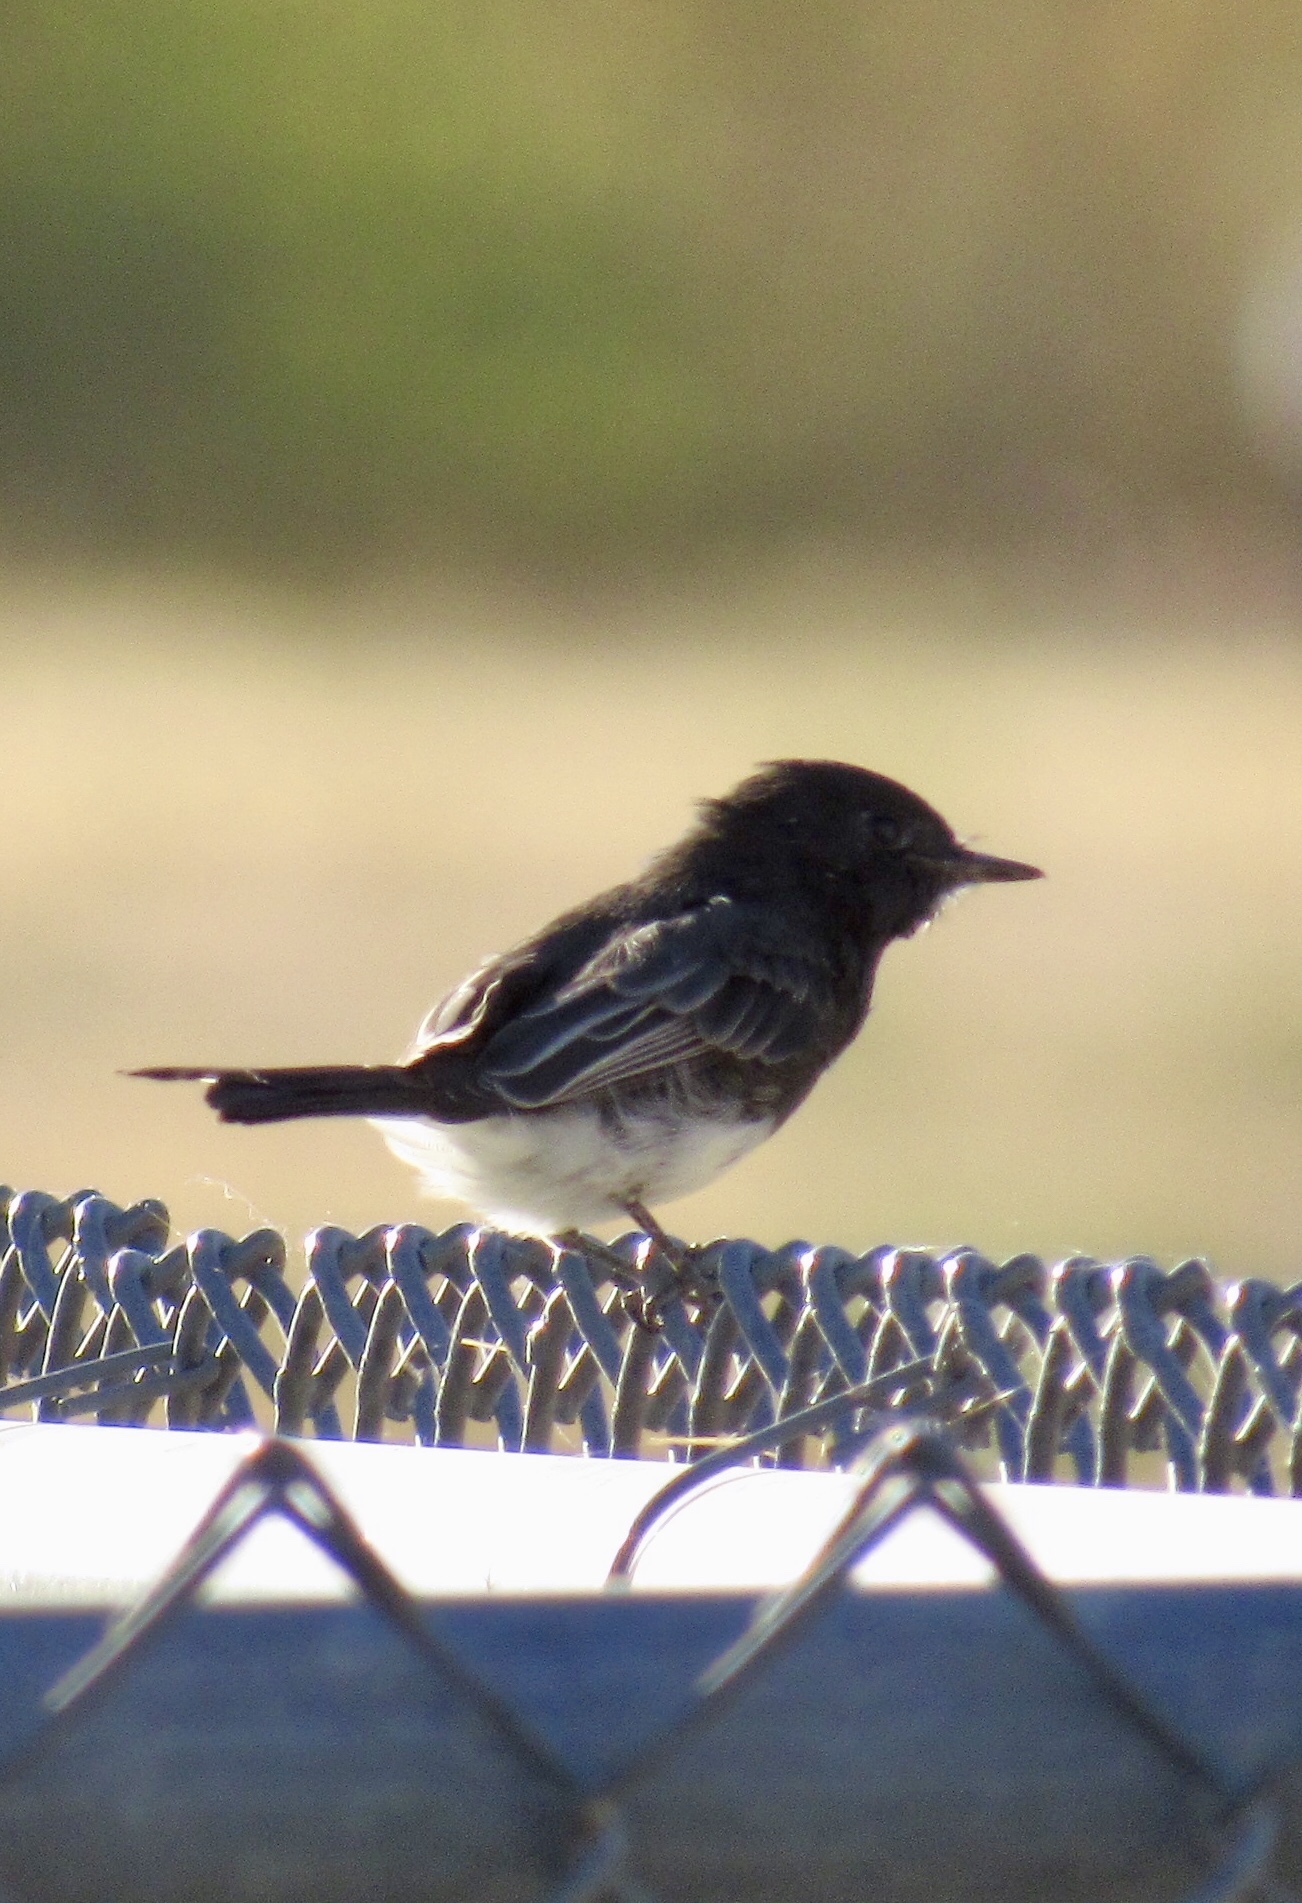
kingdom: Animalia
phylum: Chordata
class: Aves
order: Passeriformes
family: Tyrannidae
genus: Sayornis
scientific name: Sayornis nigricans
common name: Black phoebe
